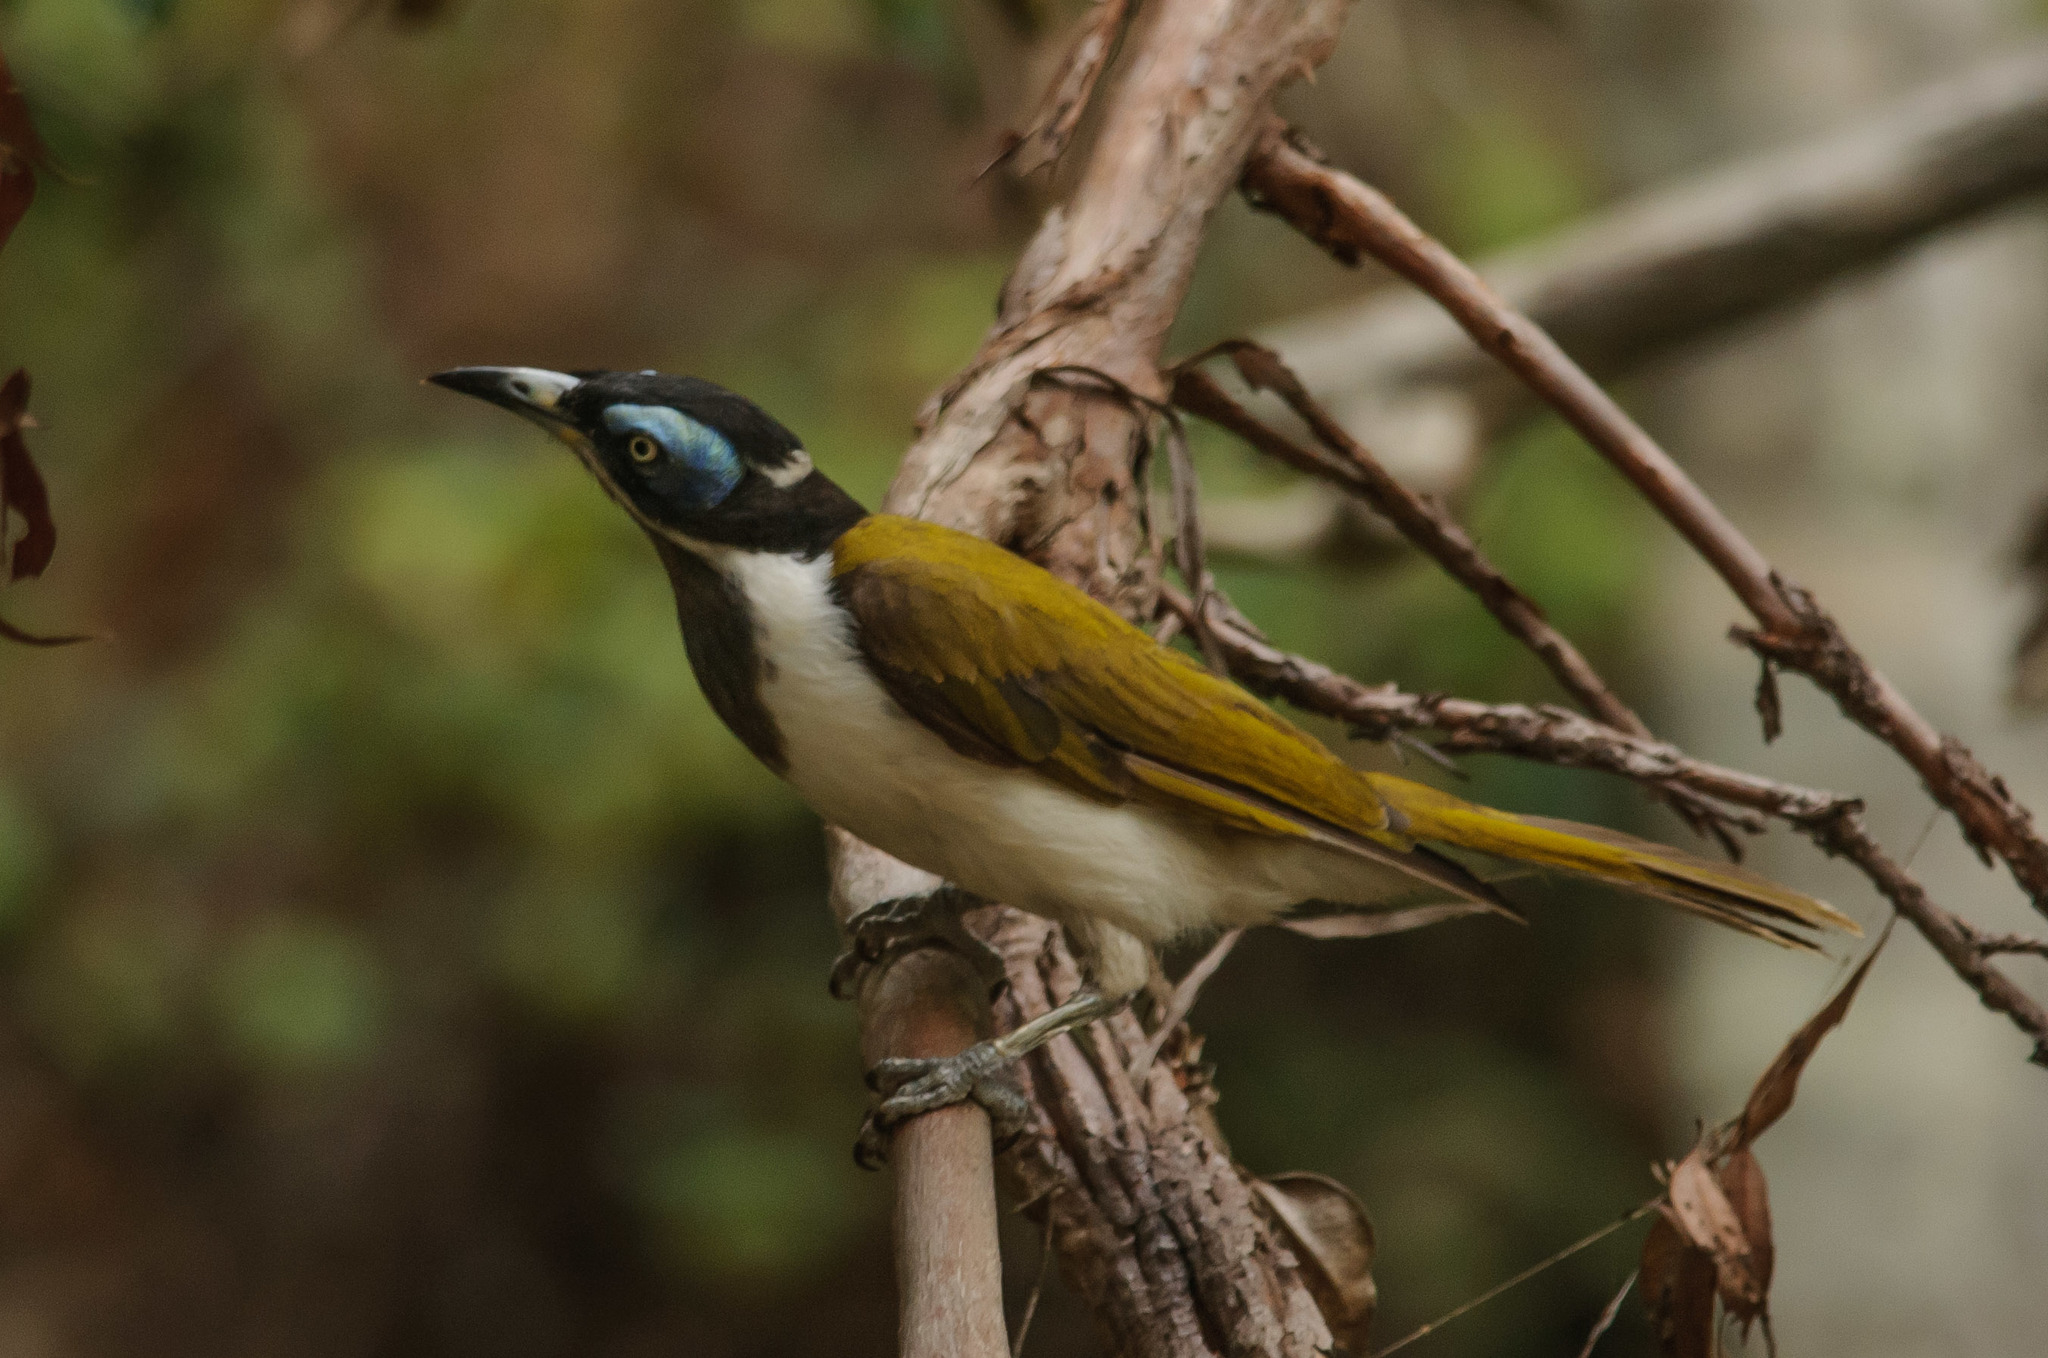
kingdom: Animalia
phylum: Chordata
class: Aves
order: Passeriformes
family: Meliphagidae
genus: Entomyzon
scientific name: Entomyzon cyanotis
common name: Blue-faced honeyeater
